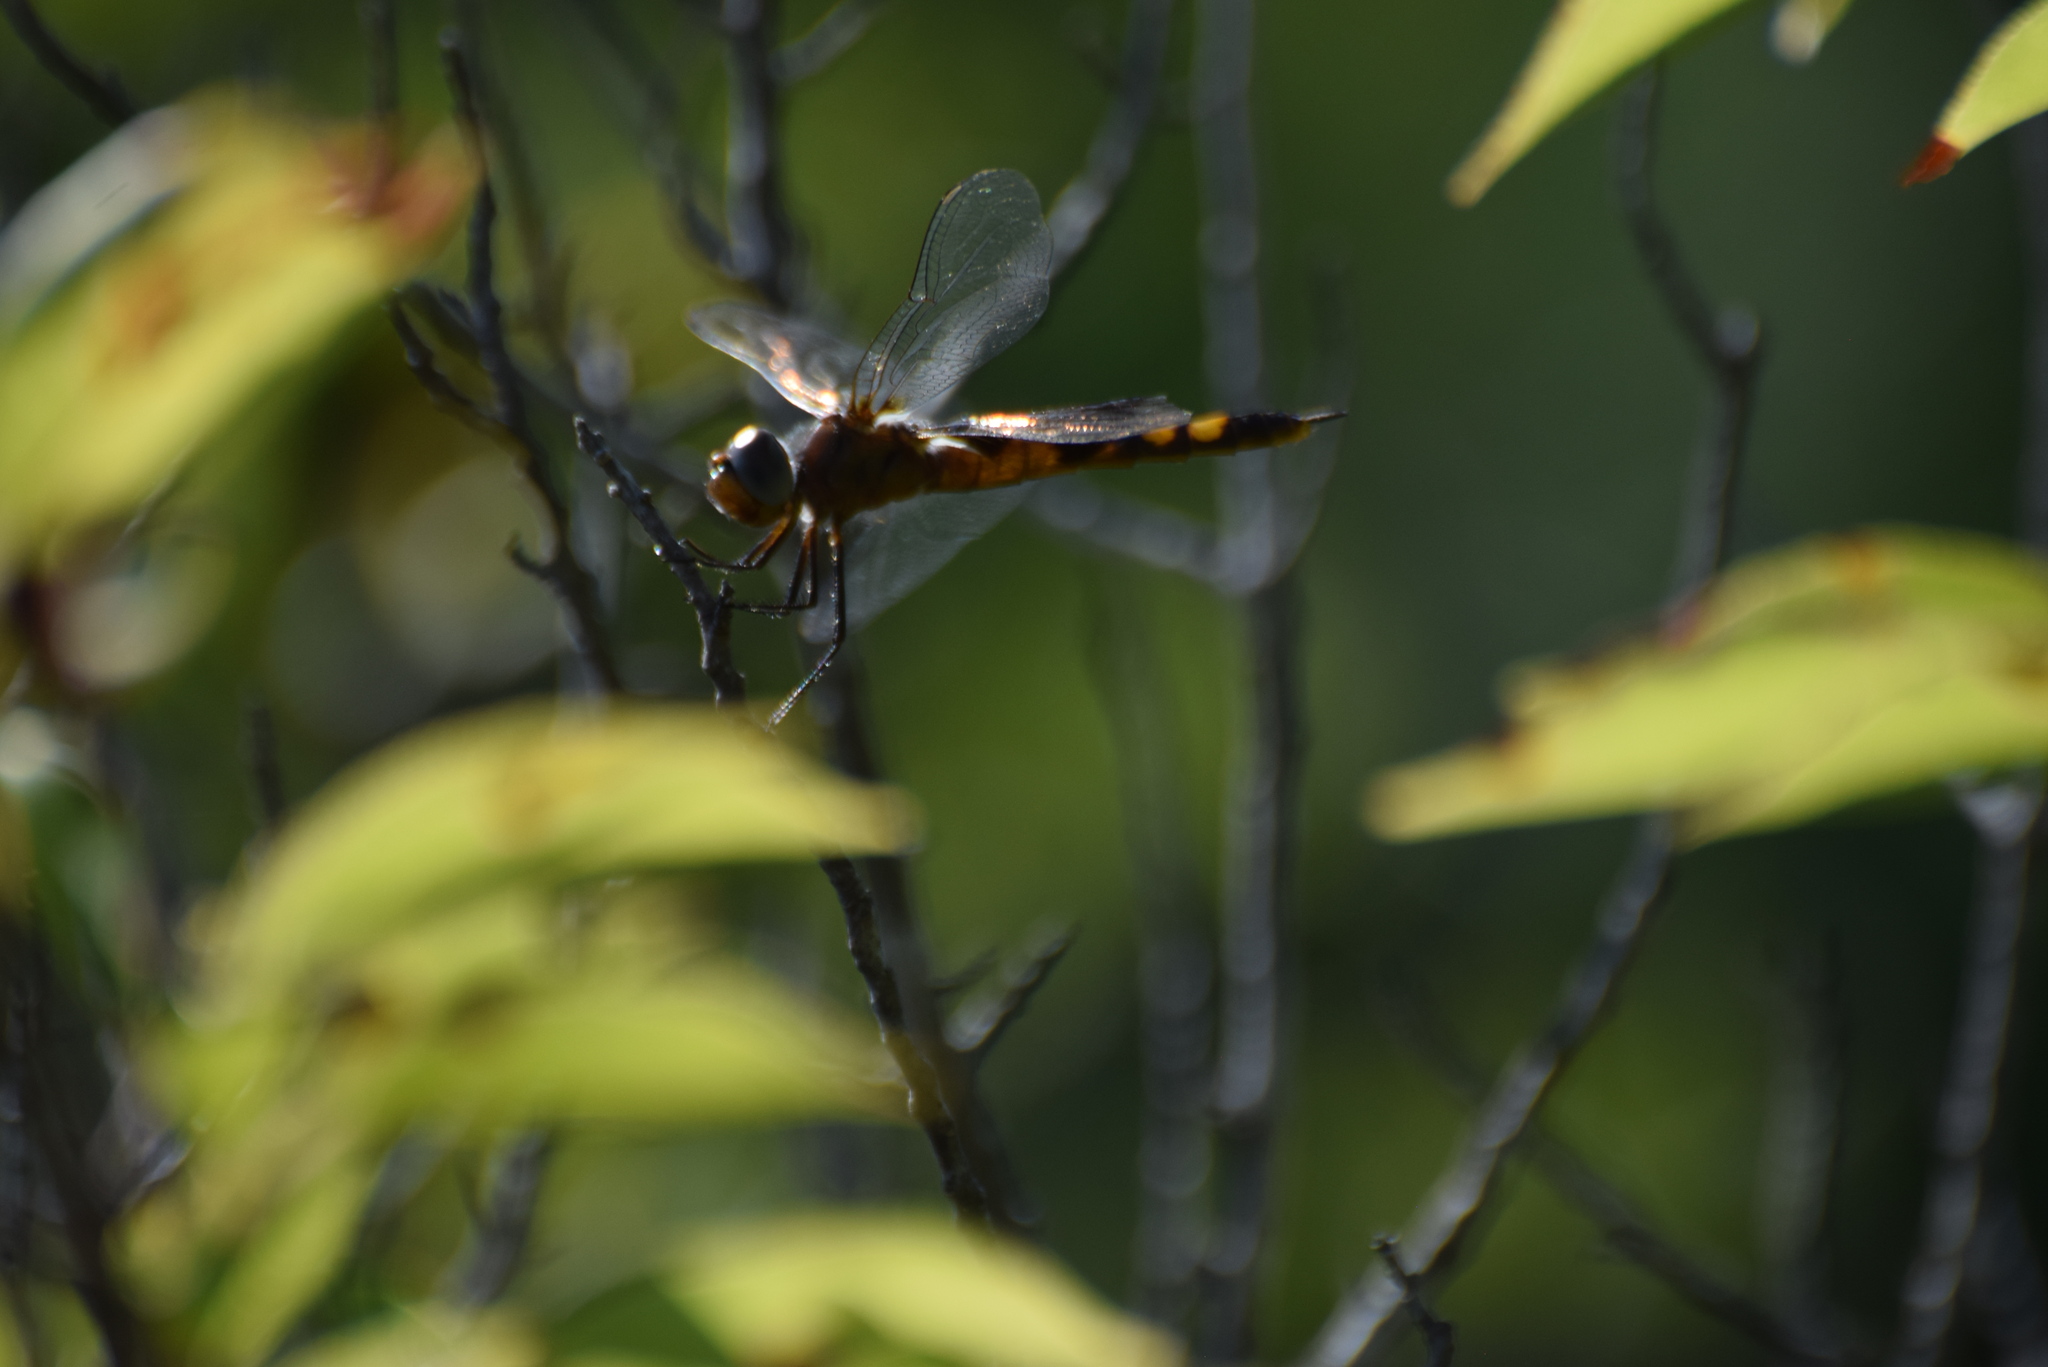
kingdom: Animalia
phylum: Arthropoda
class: Insecta
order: Odonata
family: Libellulidae
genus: Tramea
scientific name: Tramea lacerata
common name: Black saddlebags
